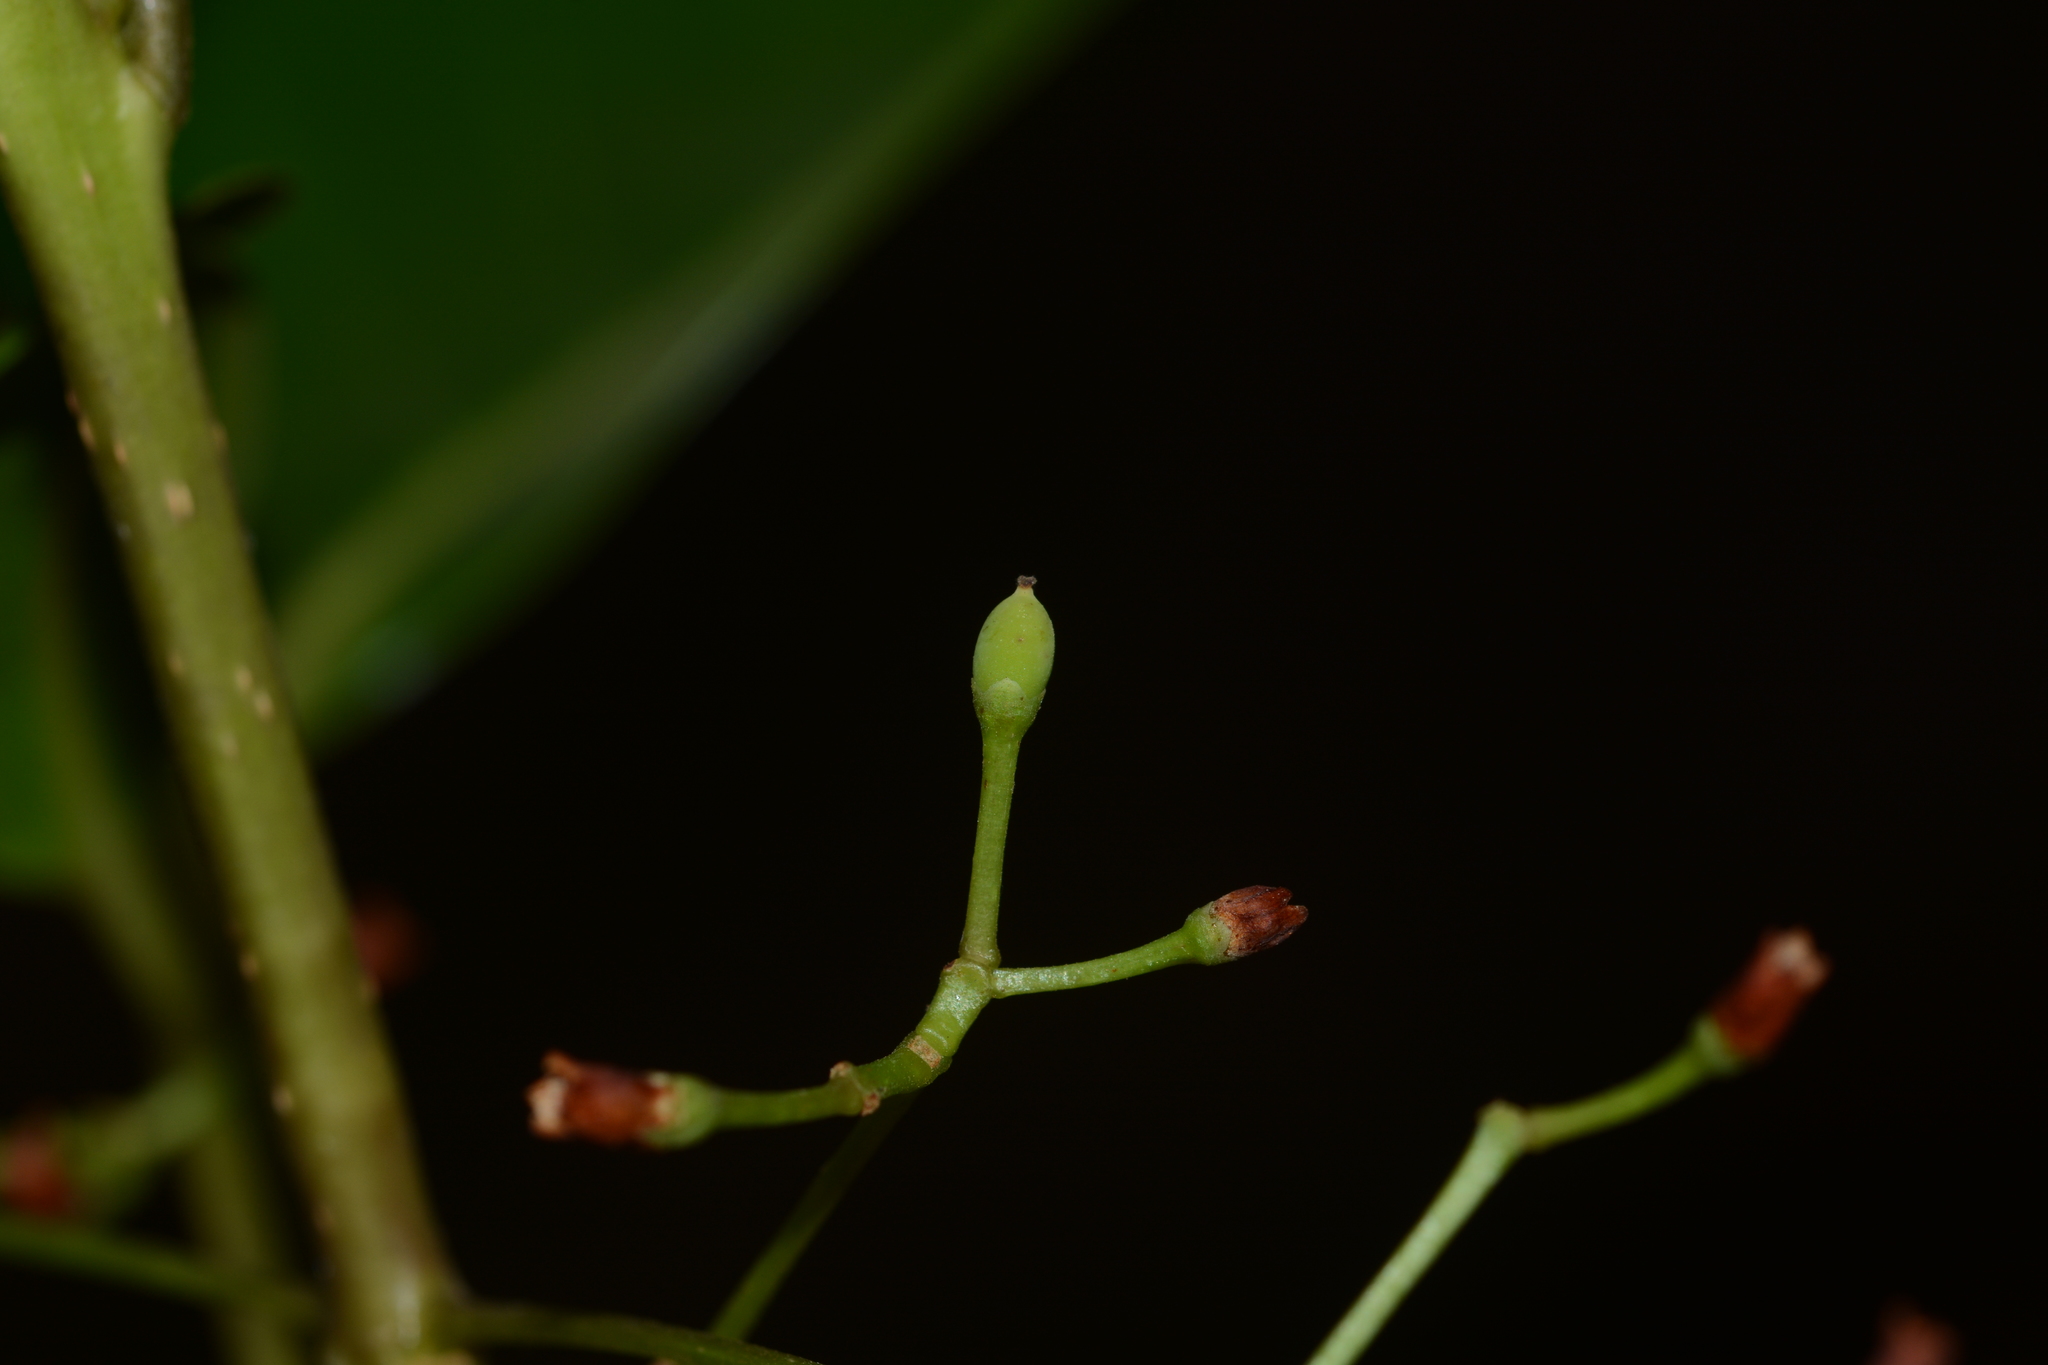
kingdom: Plantae
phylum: Tracheophyta
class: Magnoliopsida
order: Lamiales
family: Oleaceae
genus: Tetrapilus
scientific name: Tetrapilus dioicus
